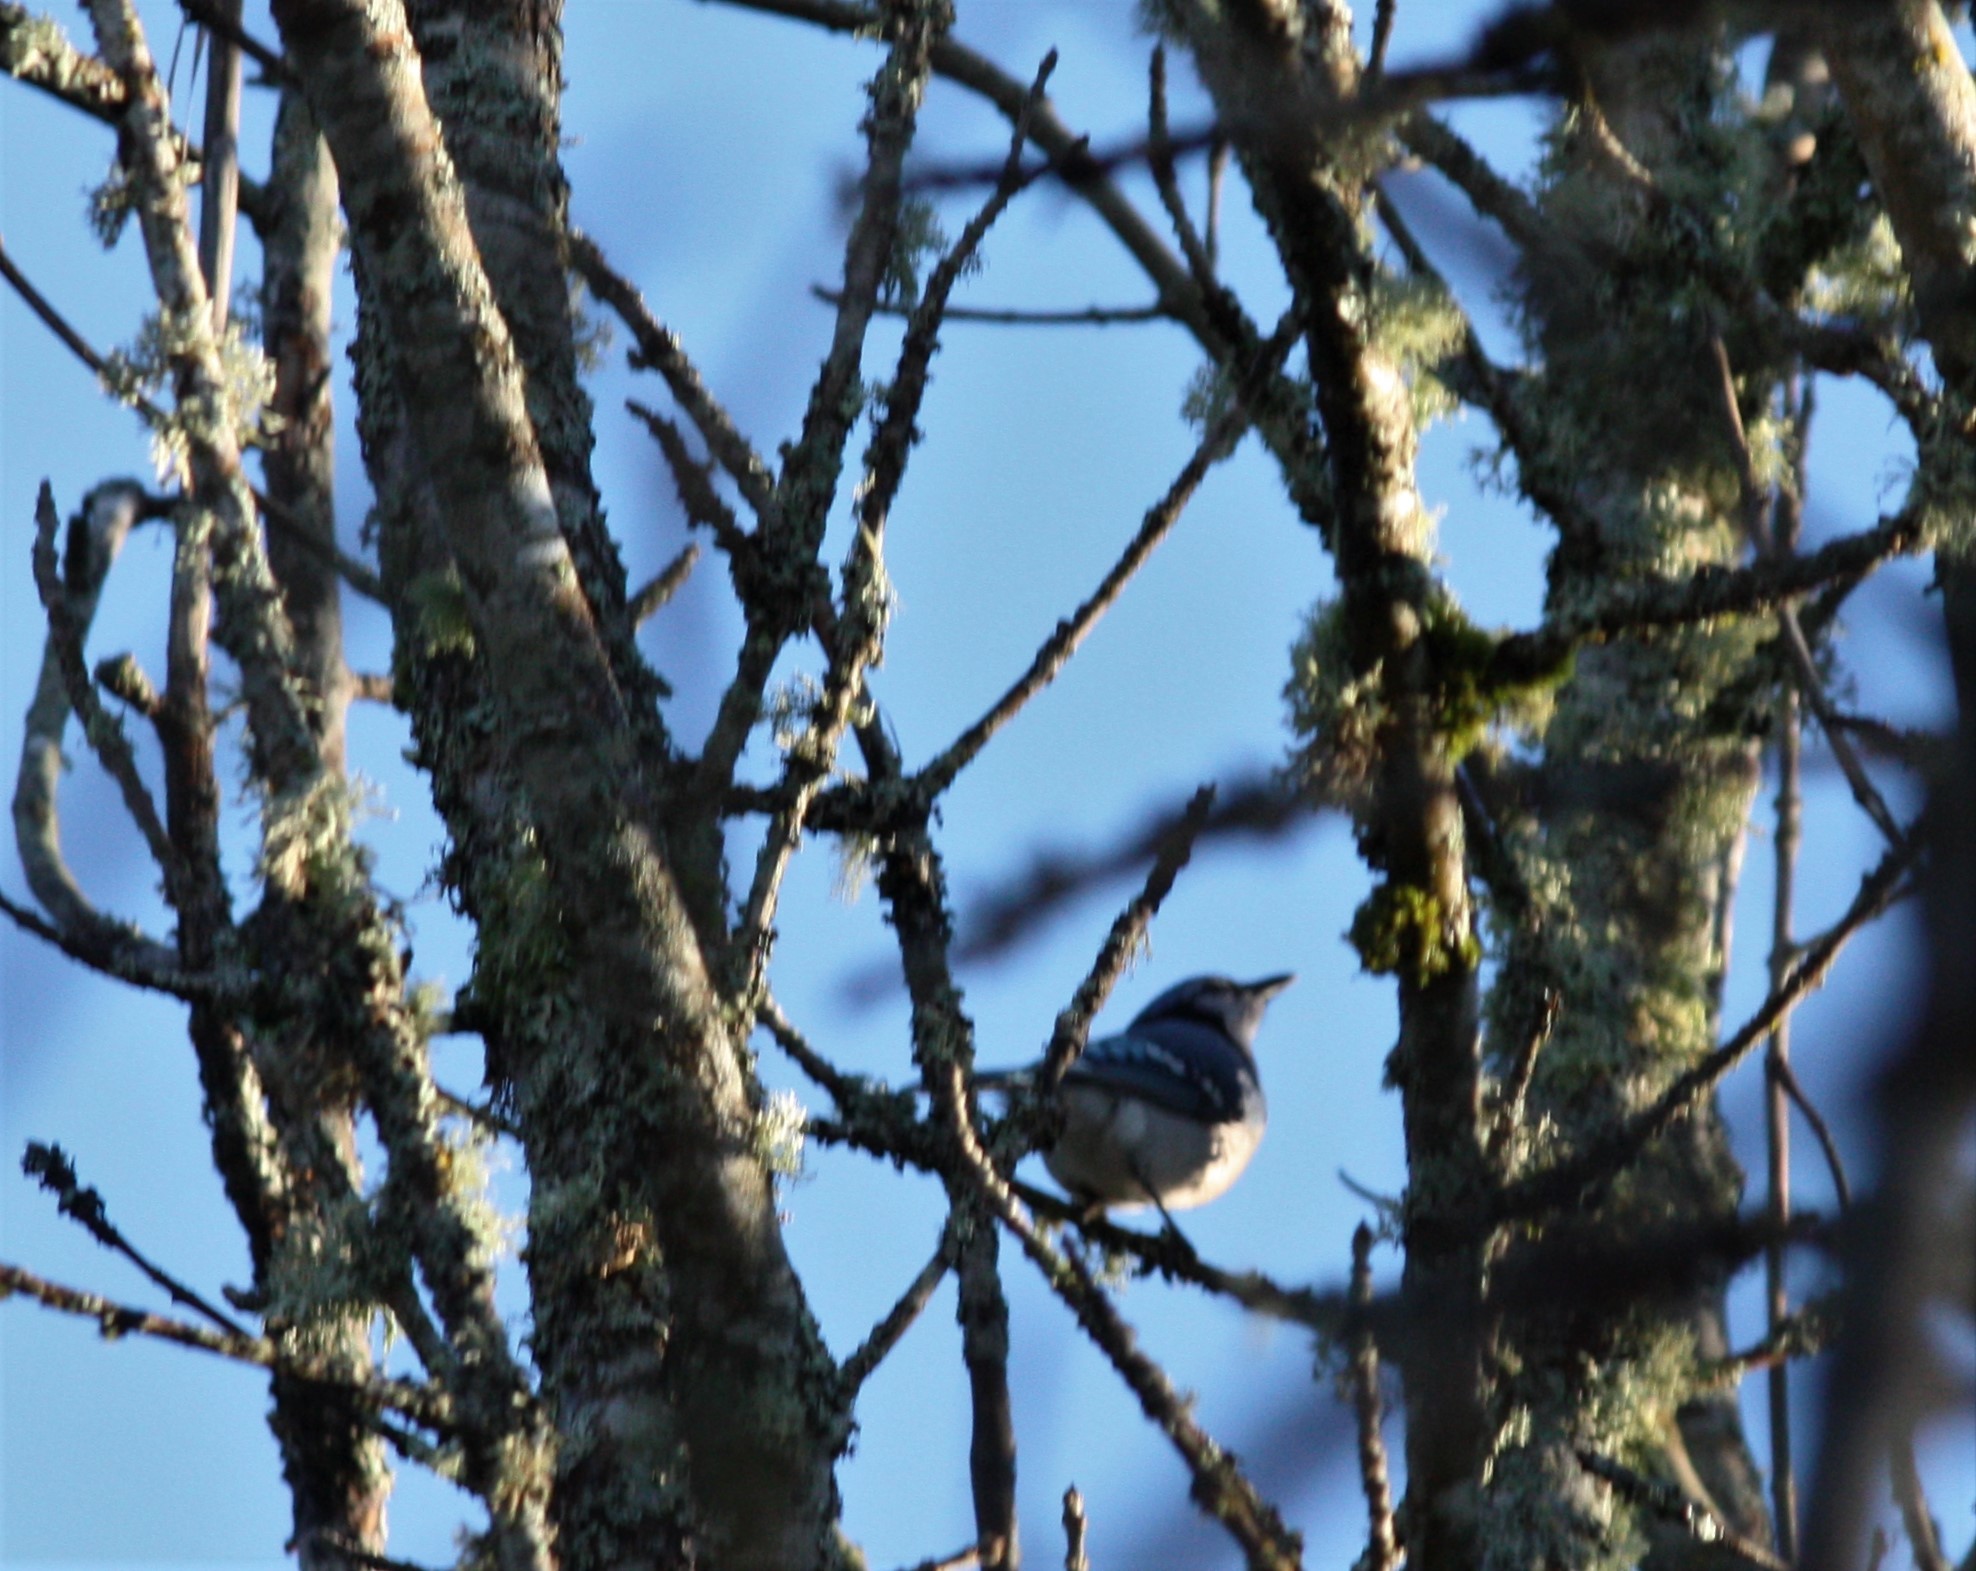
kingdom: Animalia
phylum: Chordata
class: Aves
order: Passeriformes
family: Corvidae
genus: Cyanocitta
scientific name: Cyanocitta cristata
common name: Blue jay
